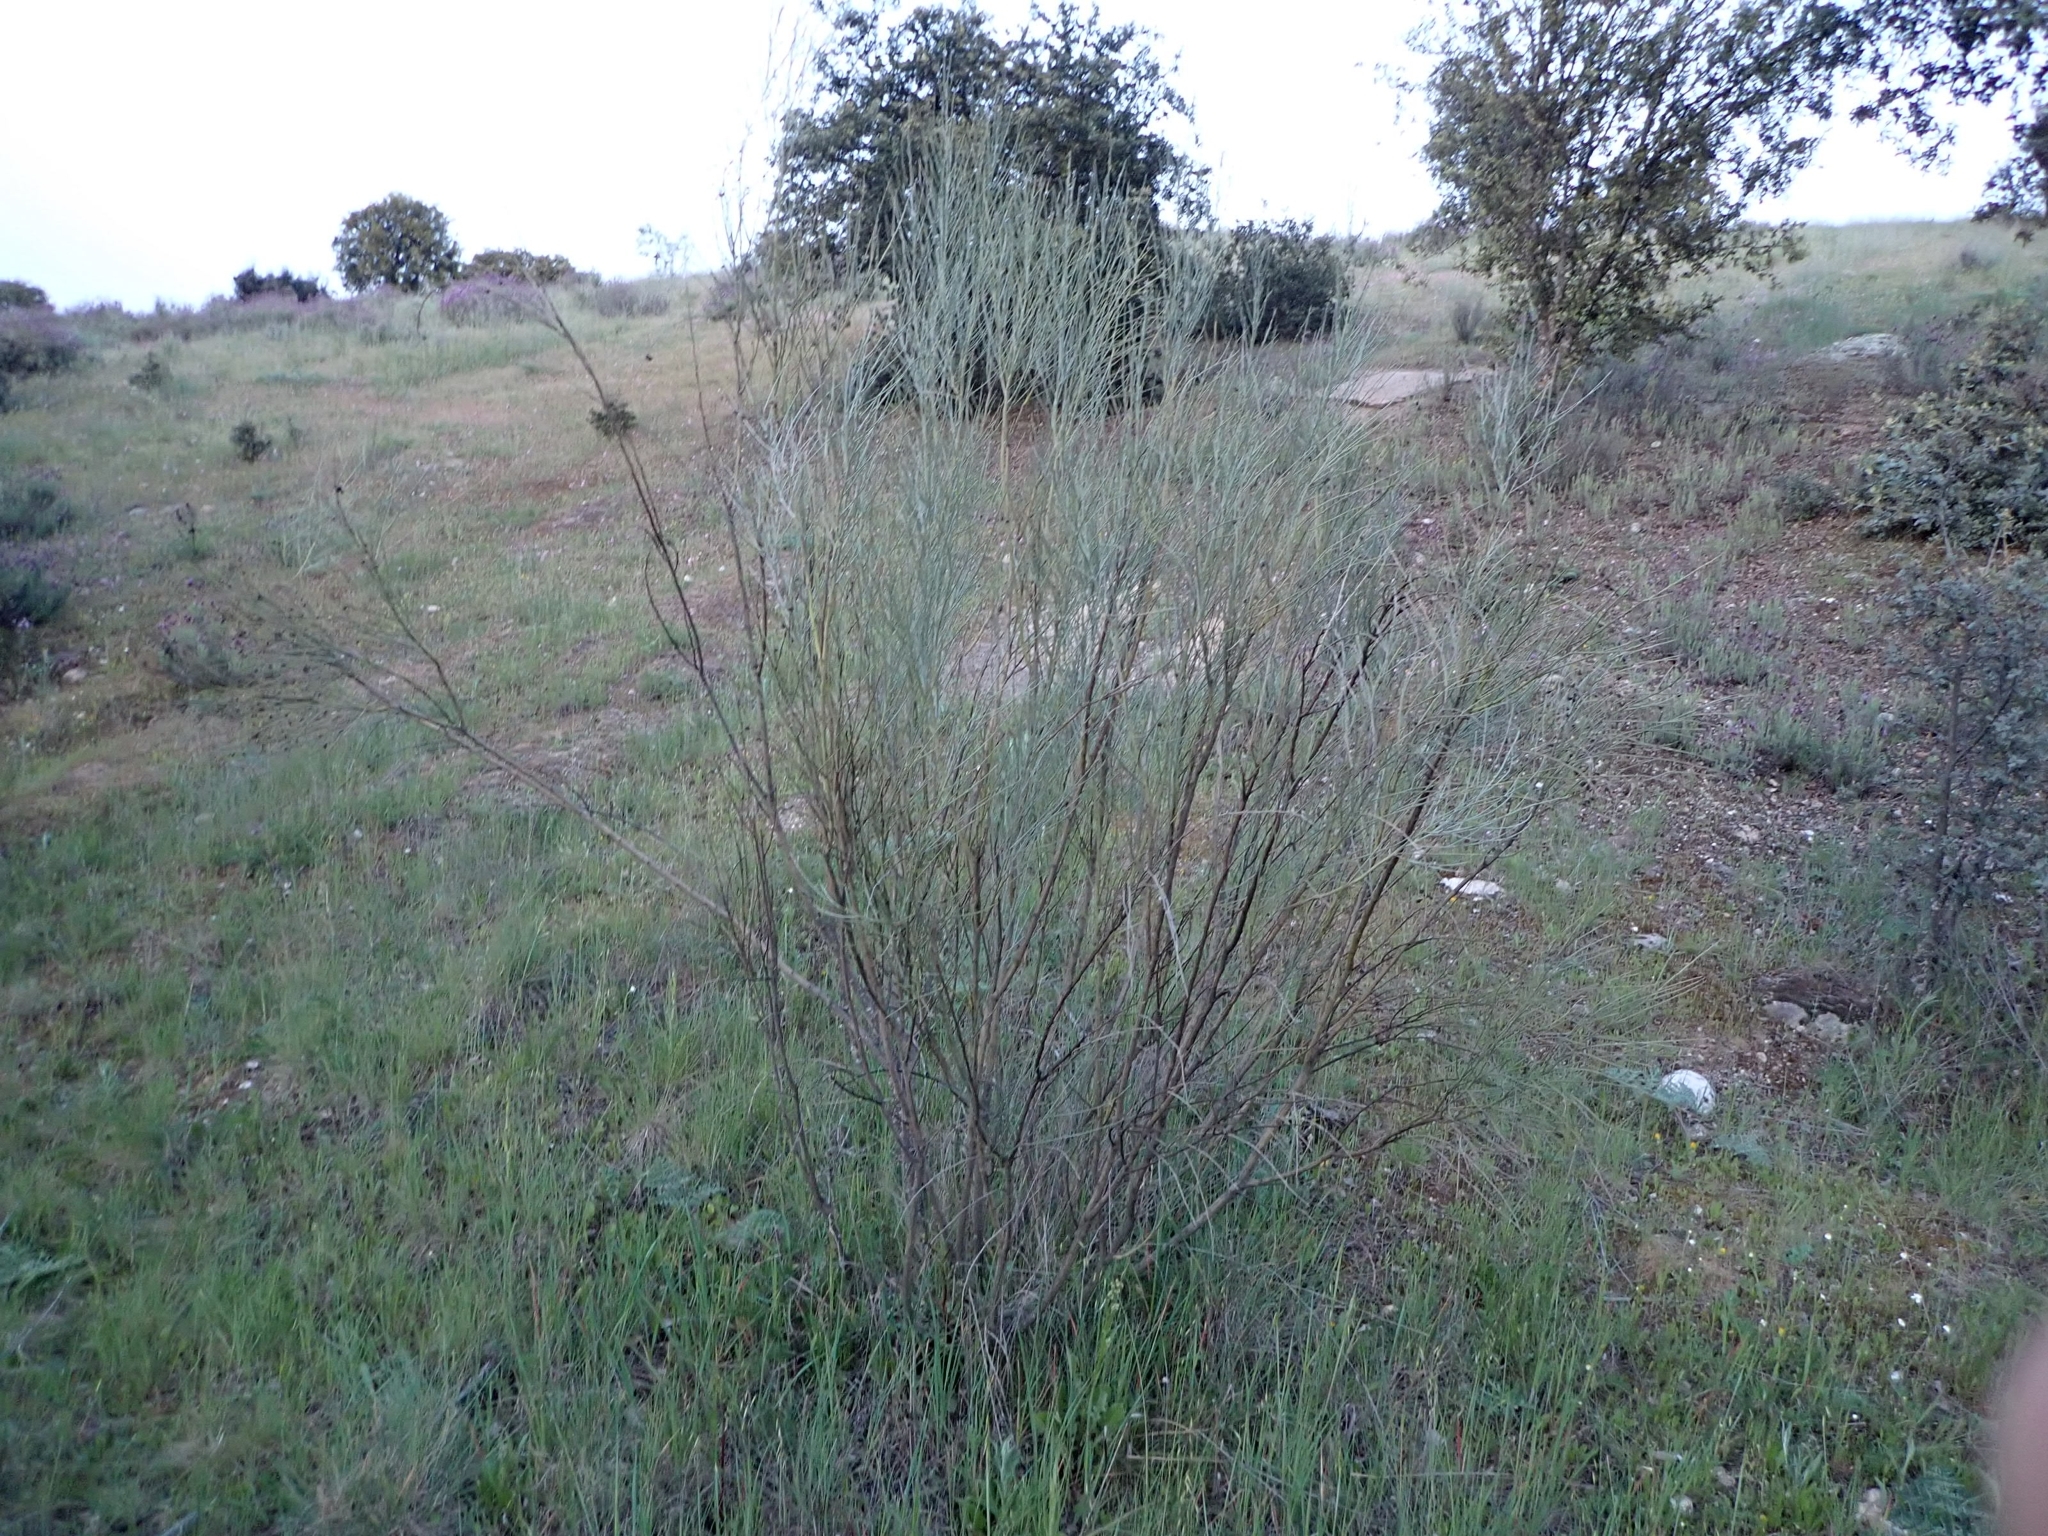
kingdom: Plantae
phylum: Tracheophyta
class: Magnoliopsida
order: Fabales
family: Fabaceae
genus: Retama
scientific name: Retama sphaerocarpa
